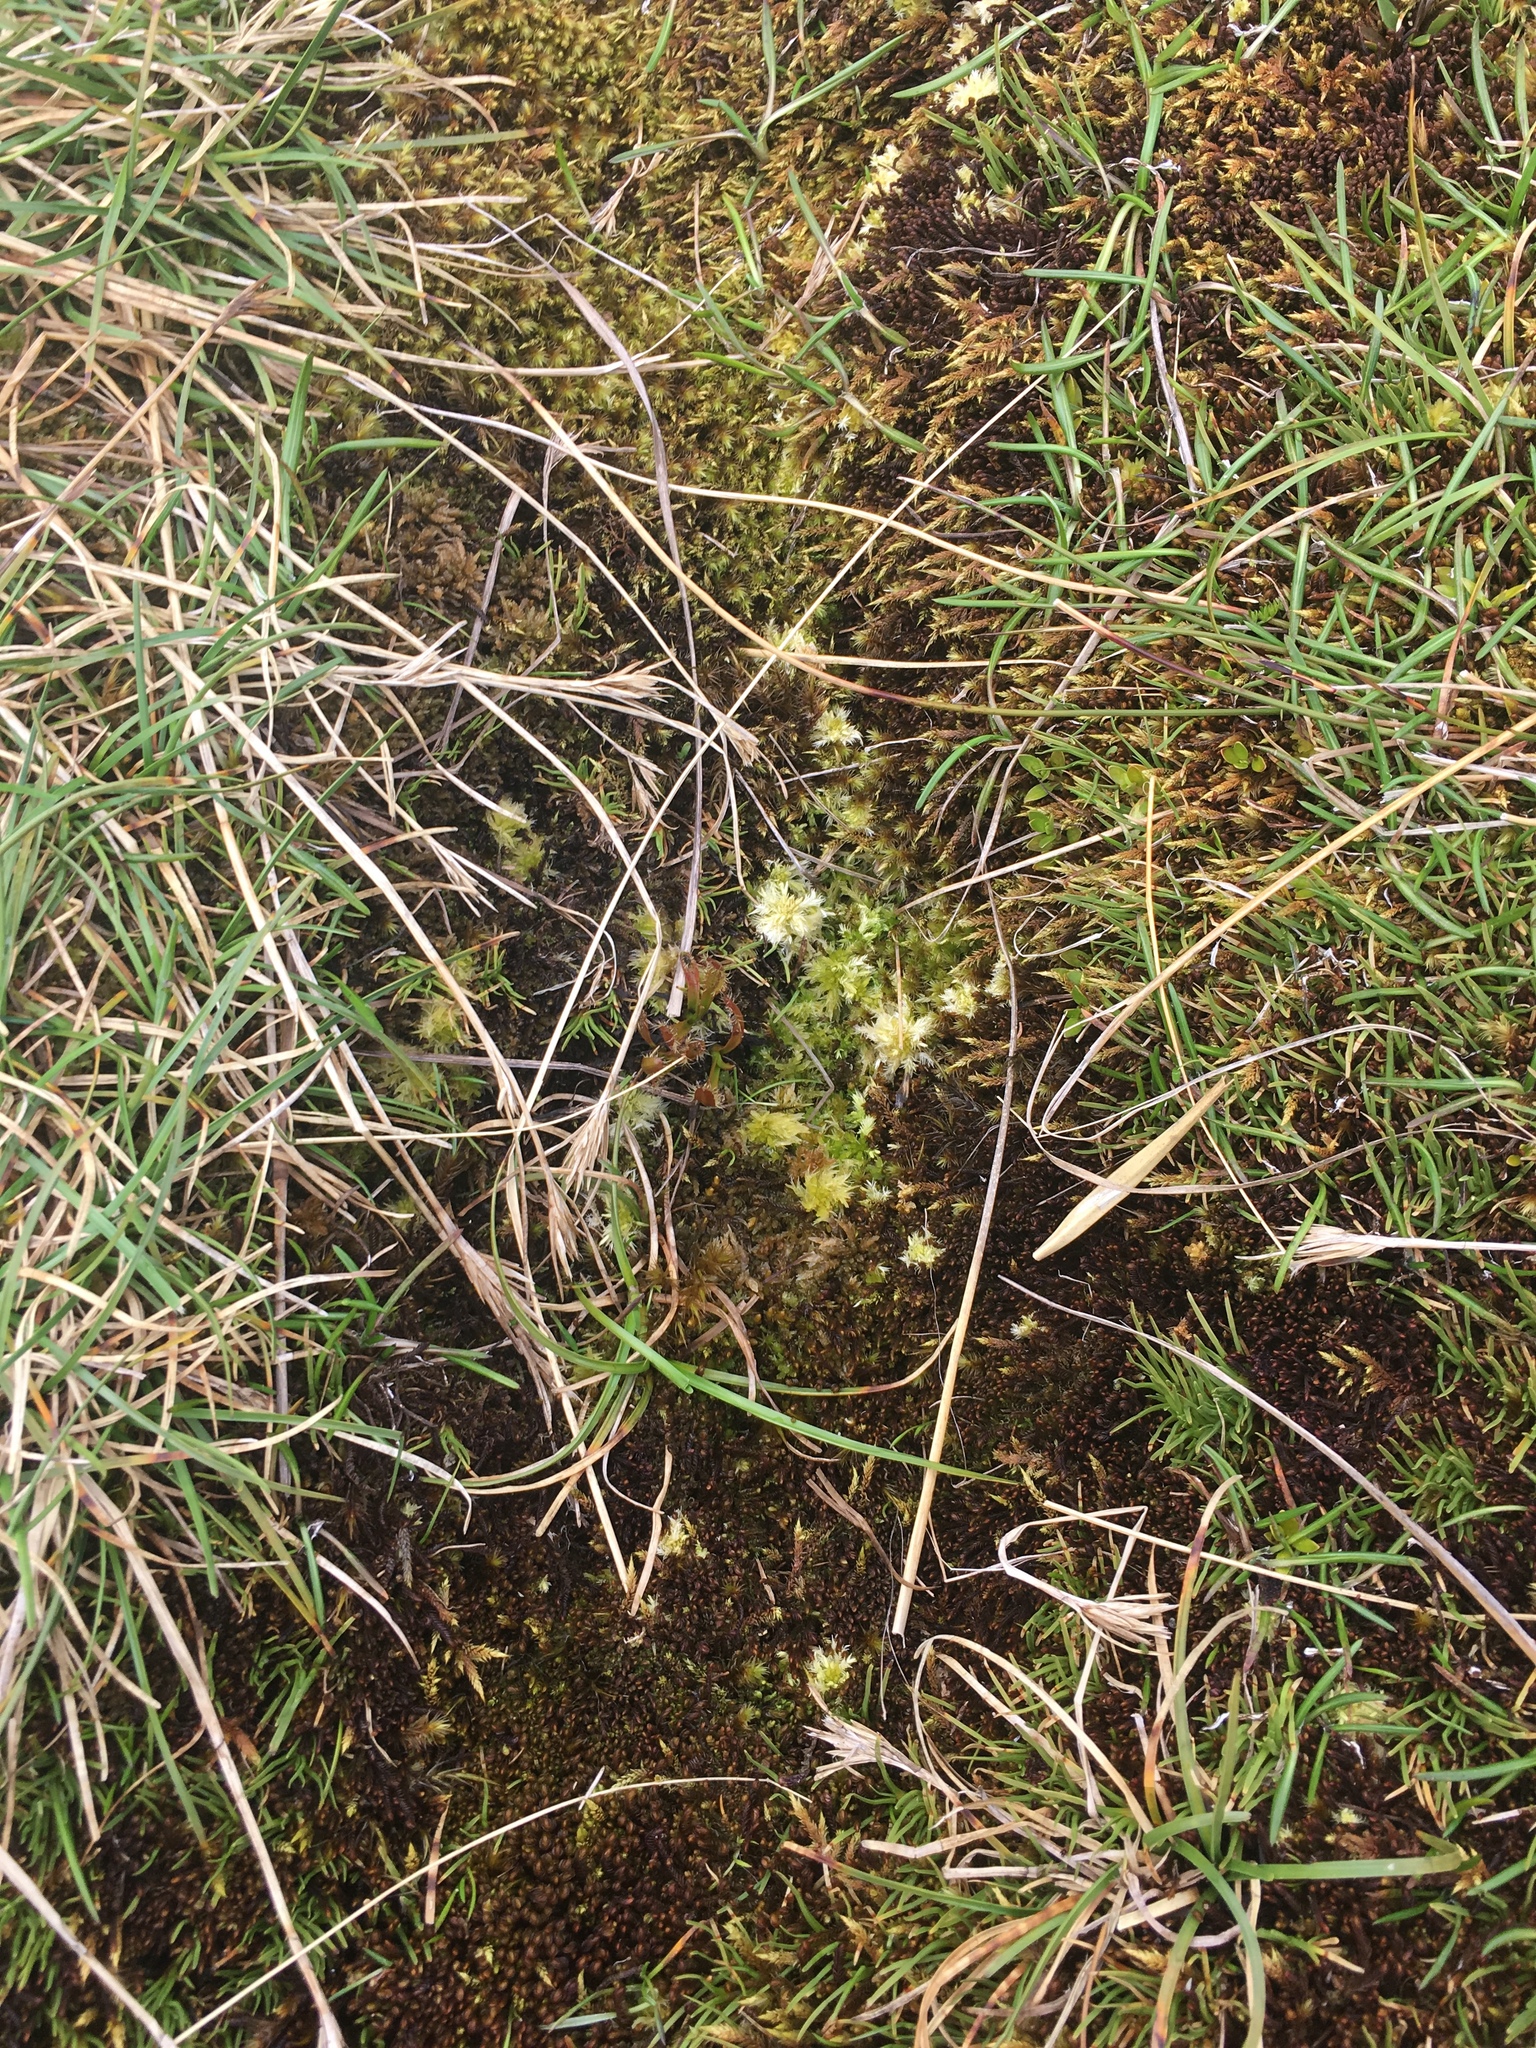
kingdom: Plantae
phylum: Tracheophyta
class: Magnoliopsida
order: Caryophyllales
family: Droseraceae
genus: Drosera
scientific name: Drosera arcturi
